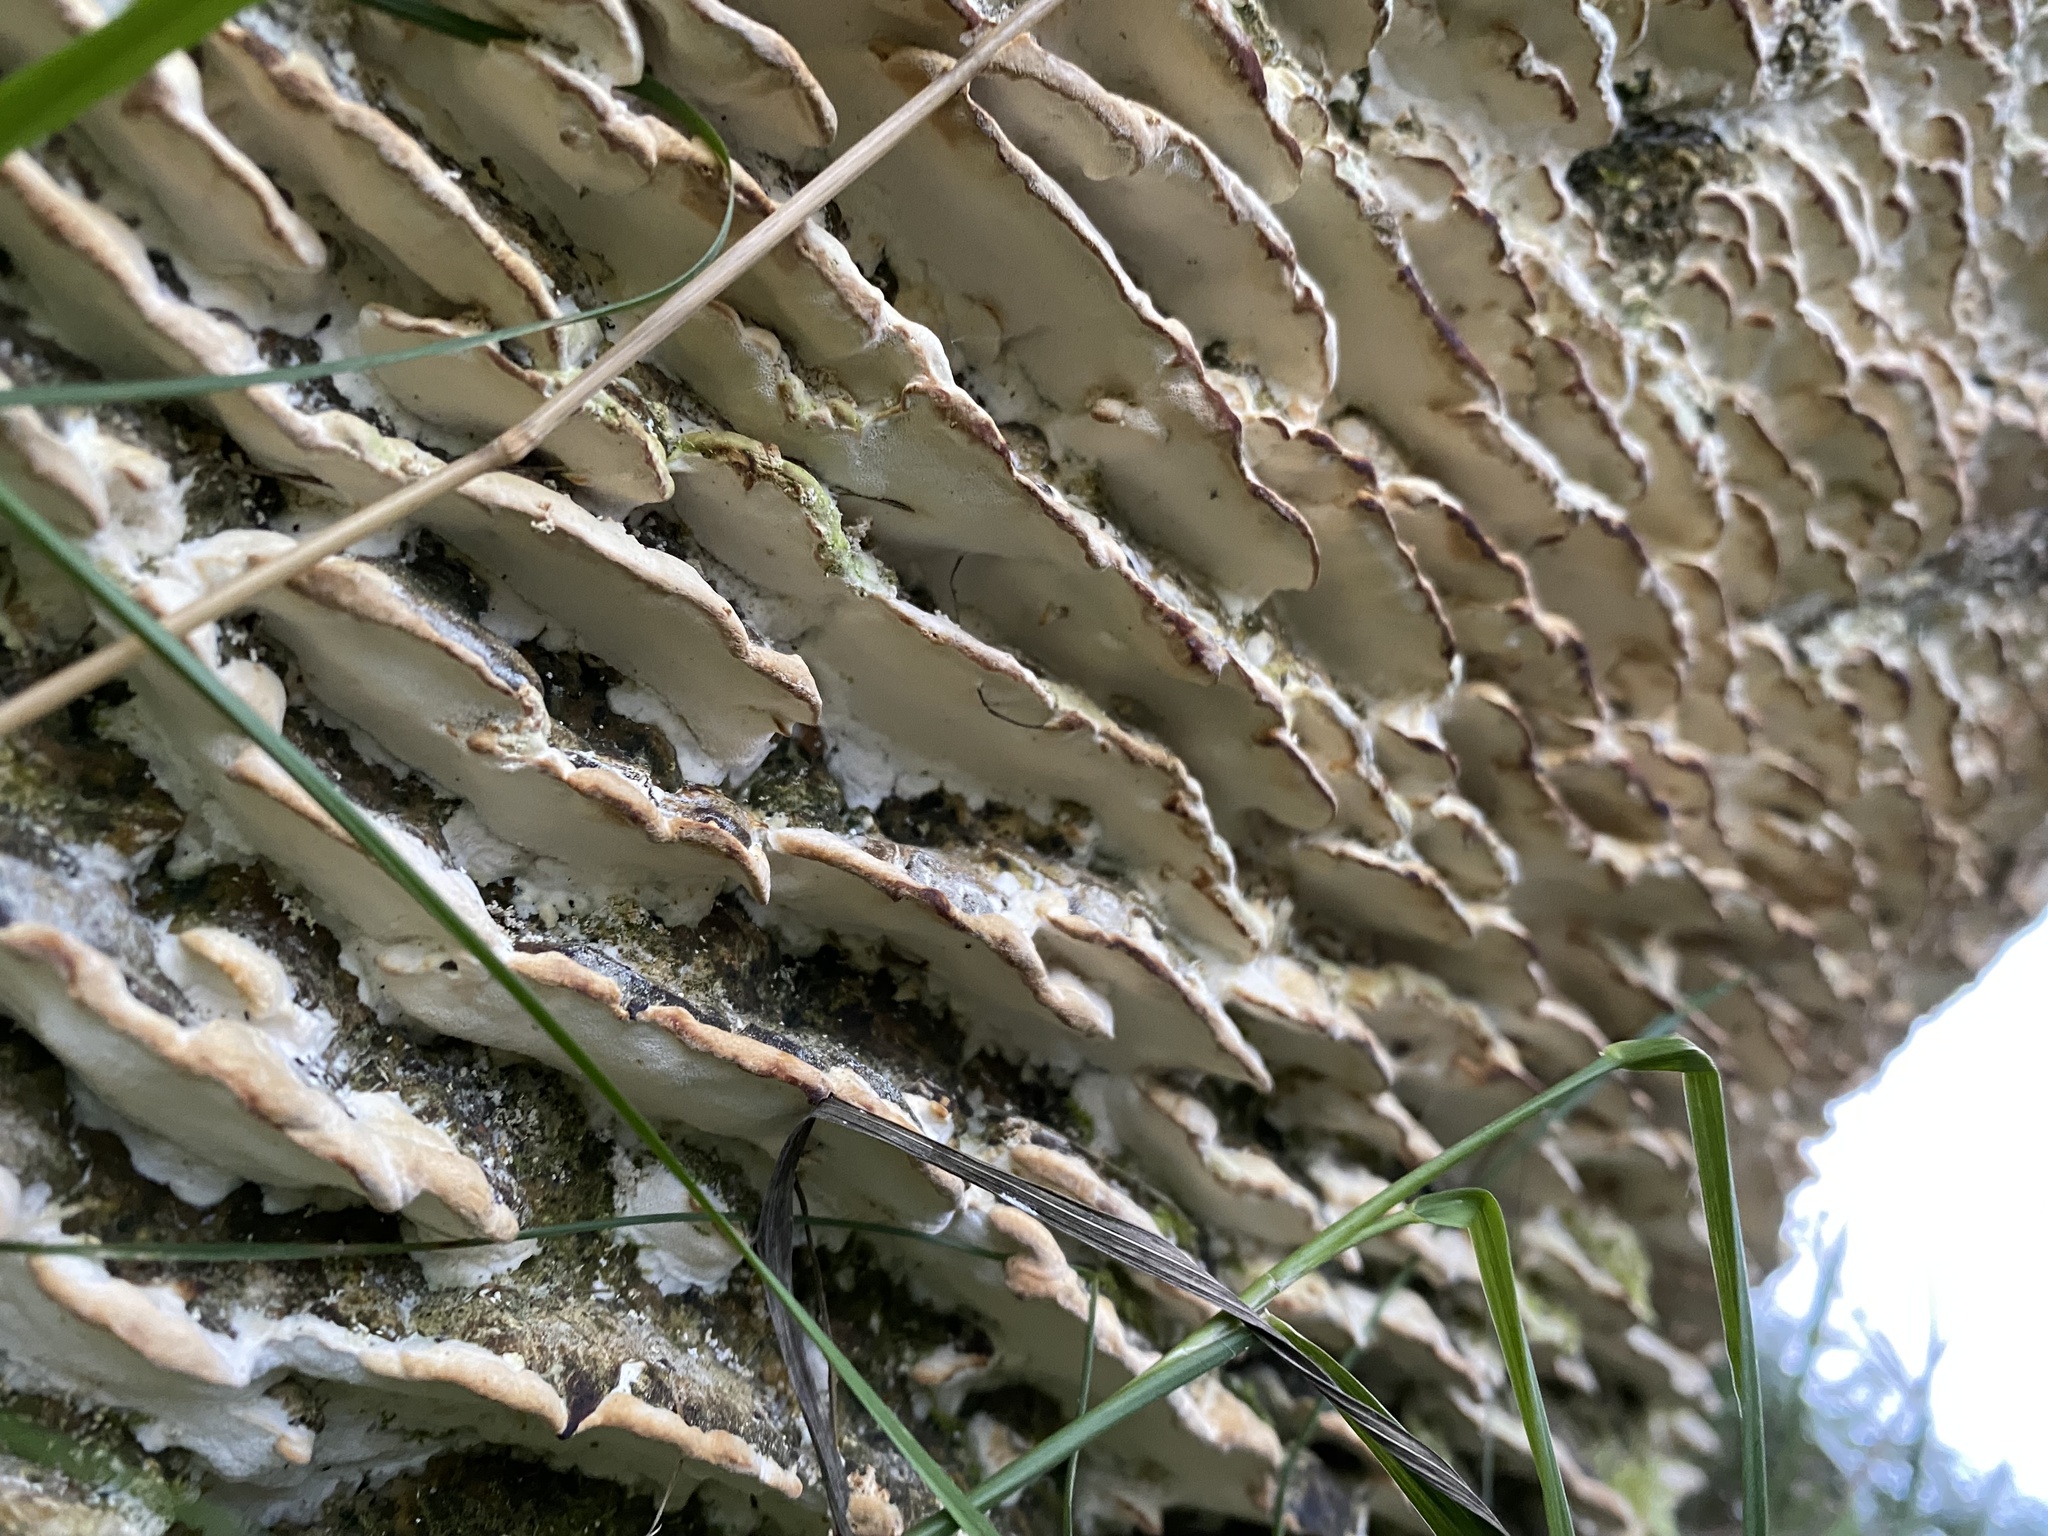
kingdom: Fungi
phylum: Basidiomycota
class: Agaricomycetes
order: Hymenochaetales
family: Oxyporaceae
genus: Oxyporus
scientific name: Oxyporus populinus
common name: Poplar bracket
